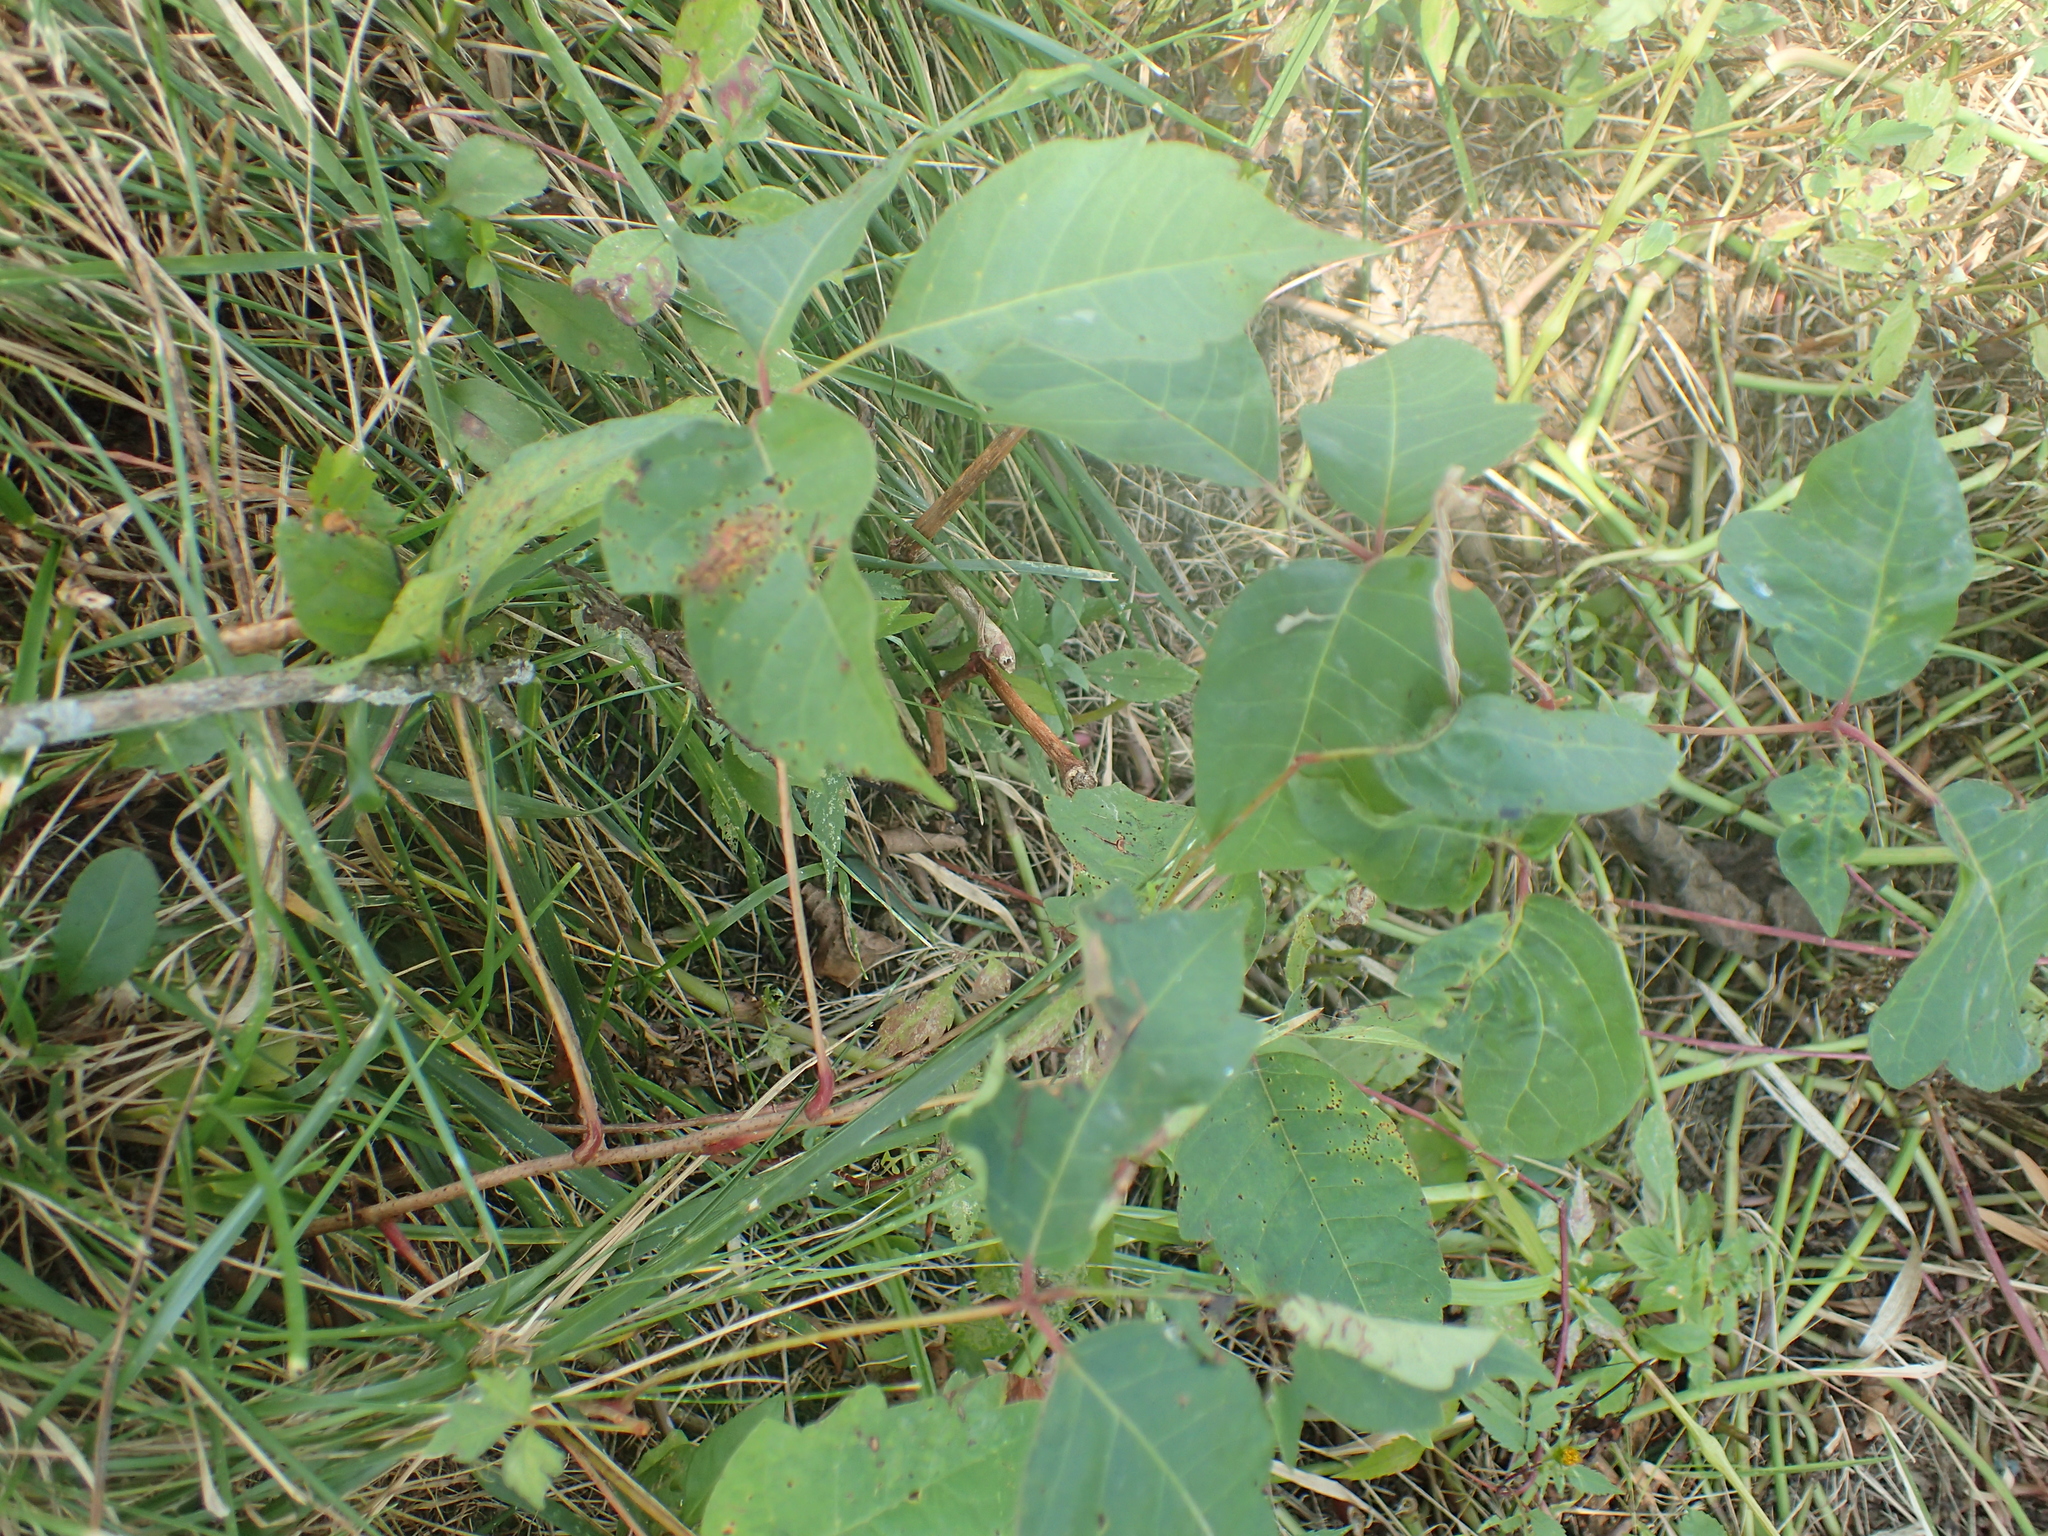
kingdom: Plantae
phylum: Tracheophyta
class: Magnoliopsida
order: Sapindales
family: Anacardiaceae
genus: Toxicodendron
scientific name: Toxicodendron radicans
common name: Poison ivy
